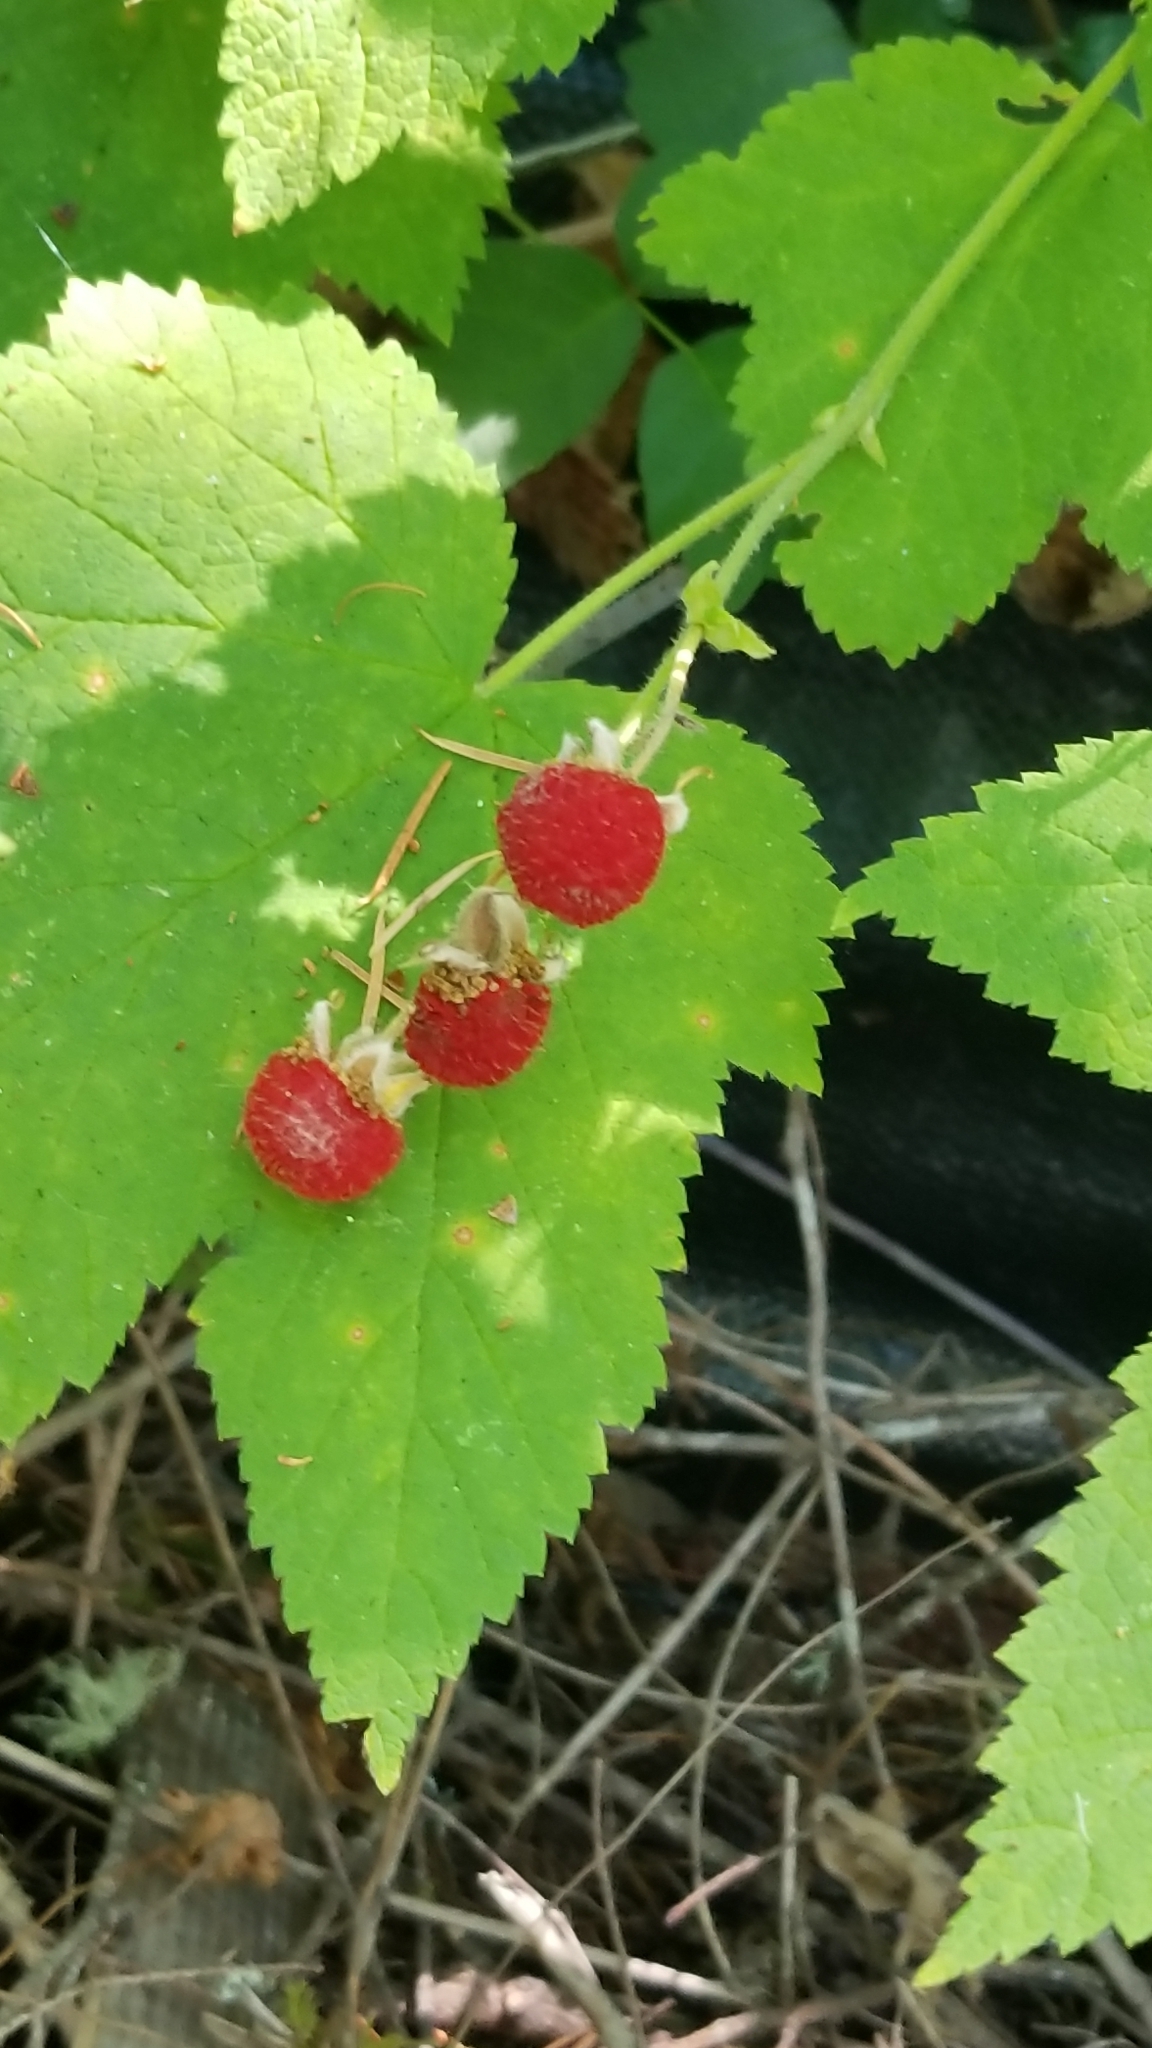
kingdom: Plantae
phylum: Tracheophyta
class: Magnoliopsida
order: Rosales
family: Rosaceae
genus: Rubus
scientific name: Rubus parviflorus
